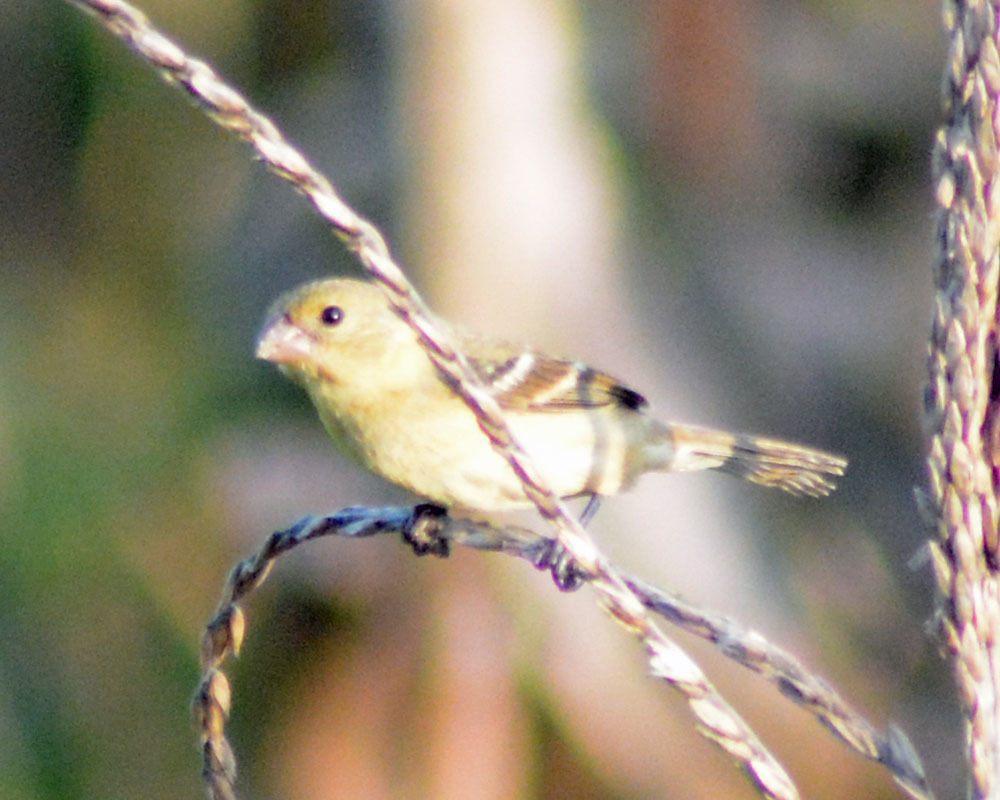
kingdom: Animalia
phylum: Chordata
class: Aves
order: Passeriformes
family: Thraupidae
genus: Sporophila
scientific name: Sporophila morelleti
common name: Morelet's seedeater
